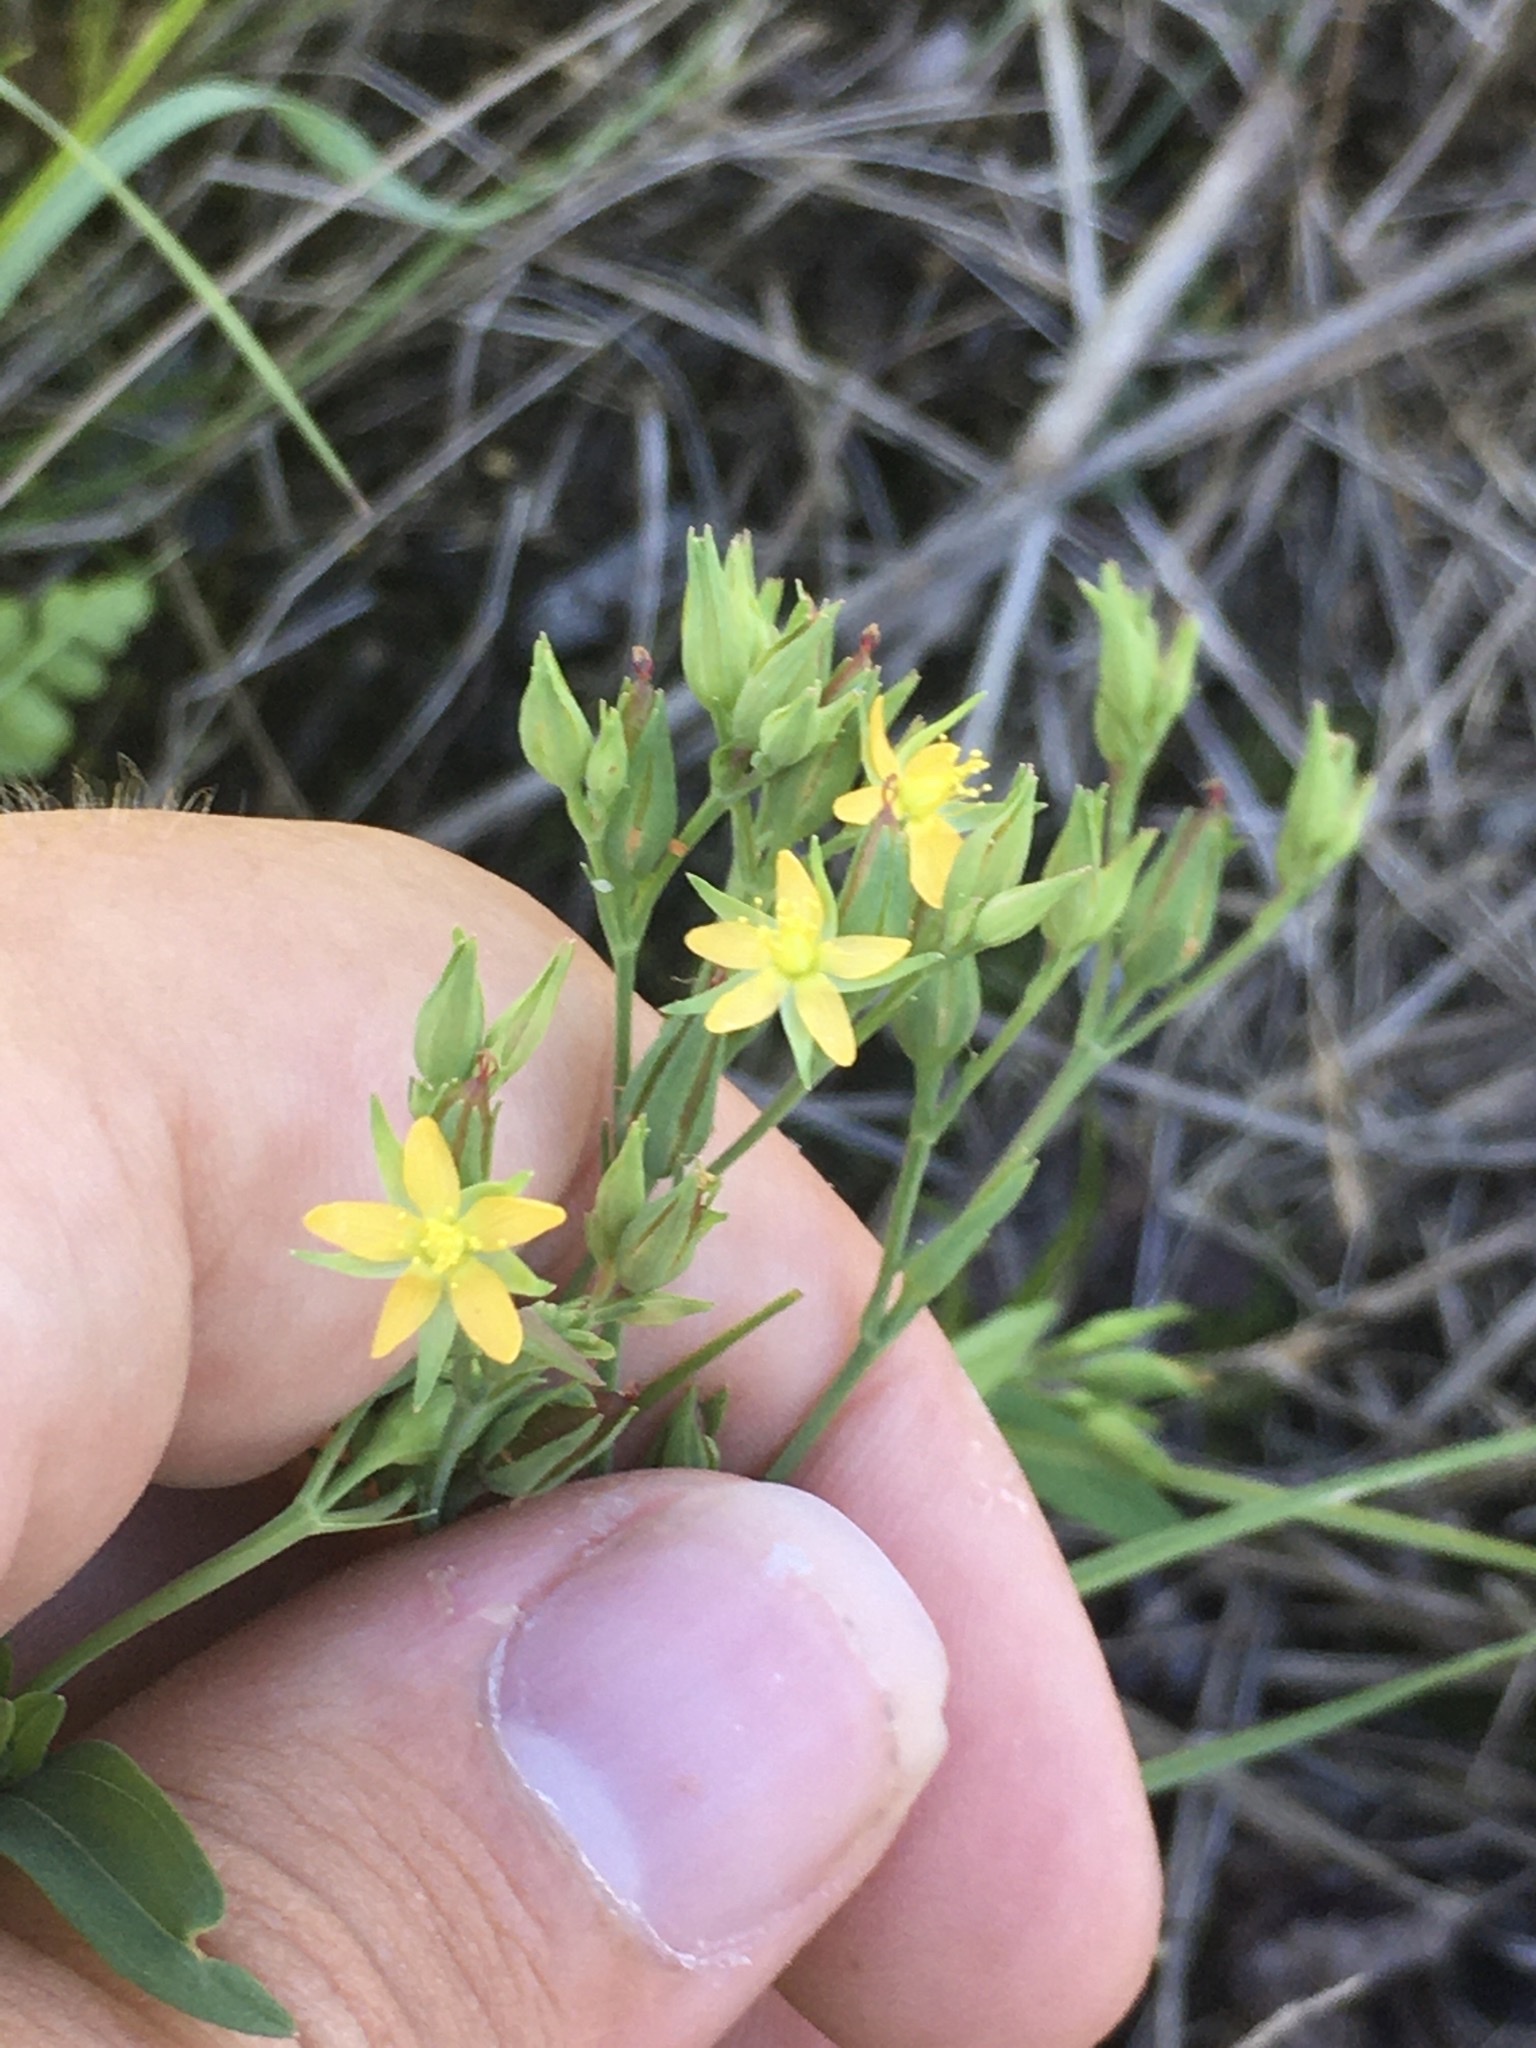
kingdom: Plantae
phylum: Tracheophyta
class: Magnoliopsida
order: Malpighiales
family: Hypericaceae
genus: Hypericum
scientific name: Hypericum majus
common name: Greater canadian st. john's-wort
